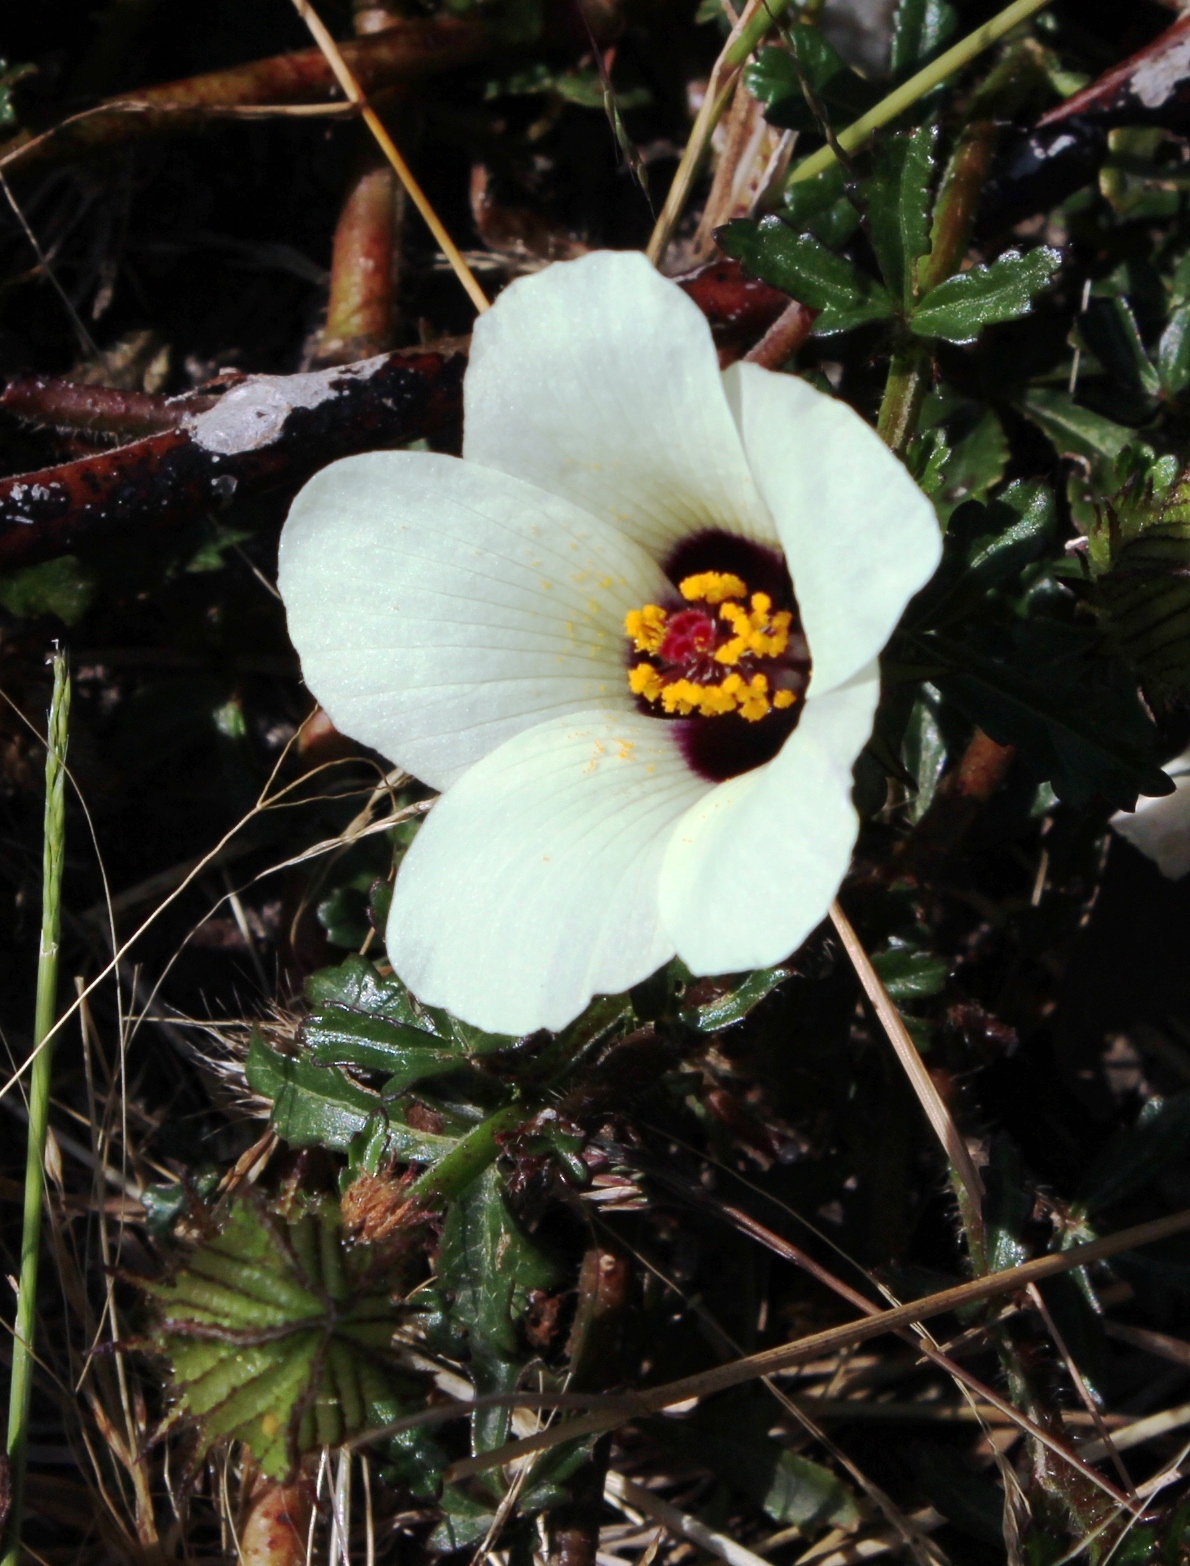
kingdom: Plantae
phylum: Tracheophyta
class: Magnoliopsida
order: Malvales
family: Malvaceae
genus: Hibiscus
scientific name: Hibiscus trionum
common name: Bladder ketmia
